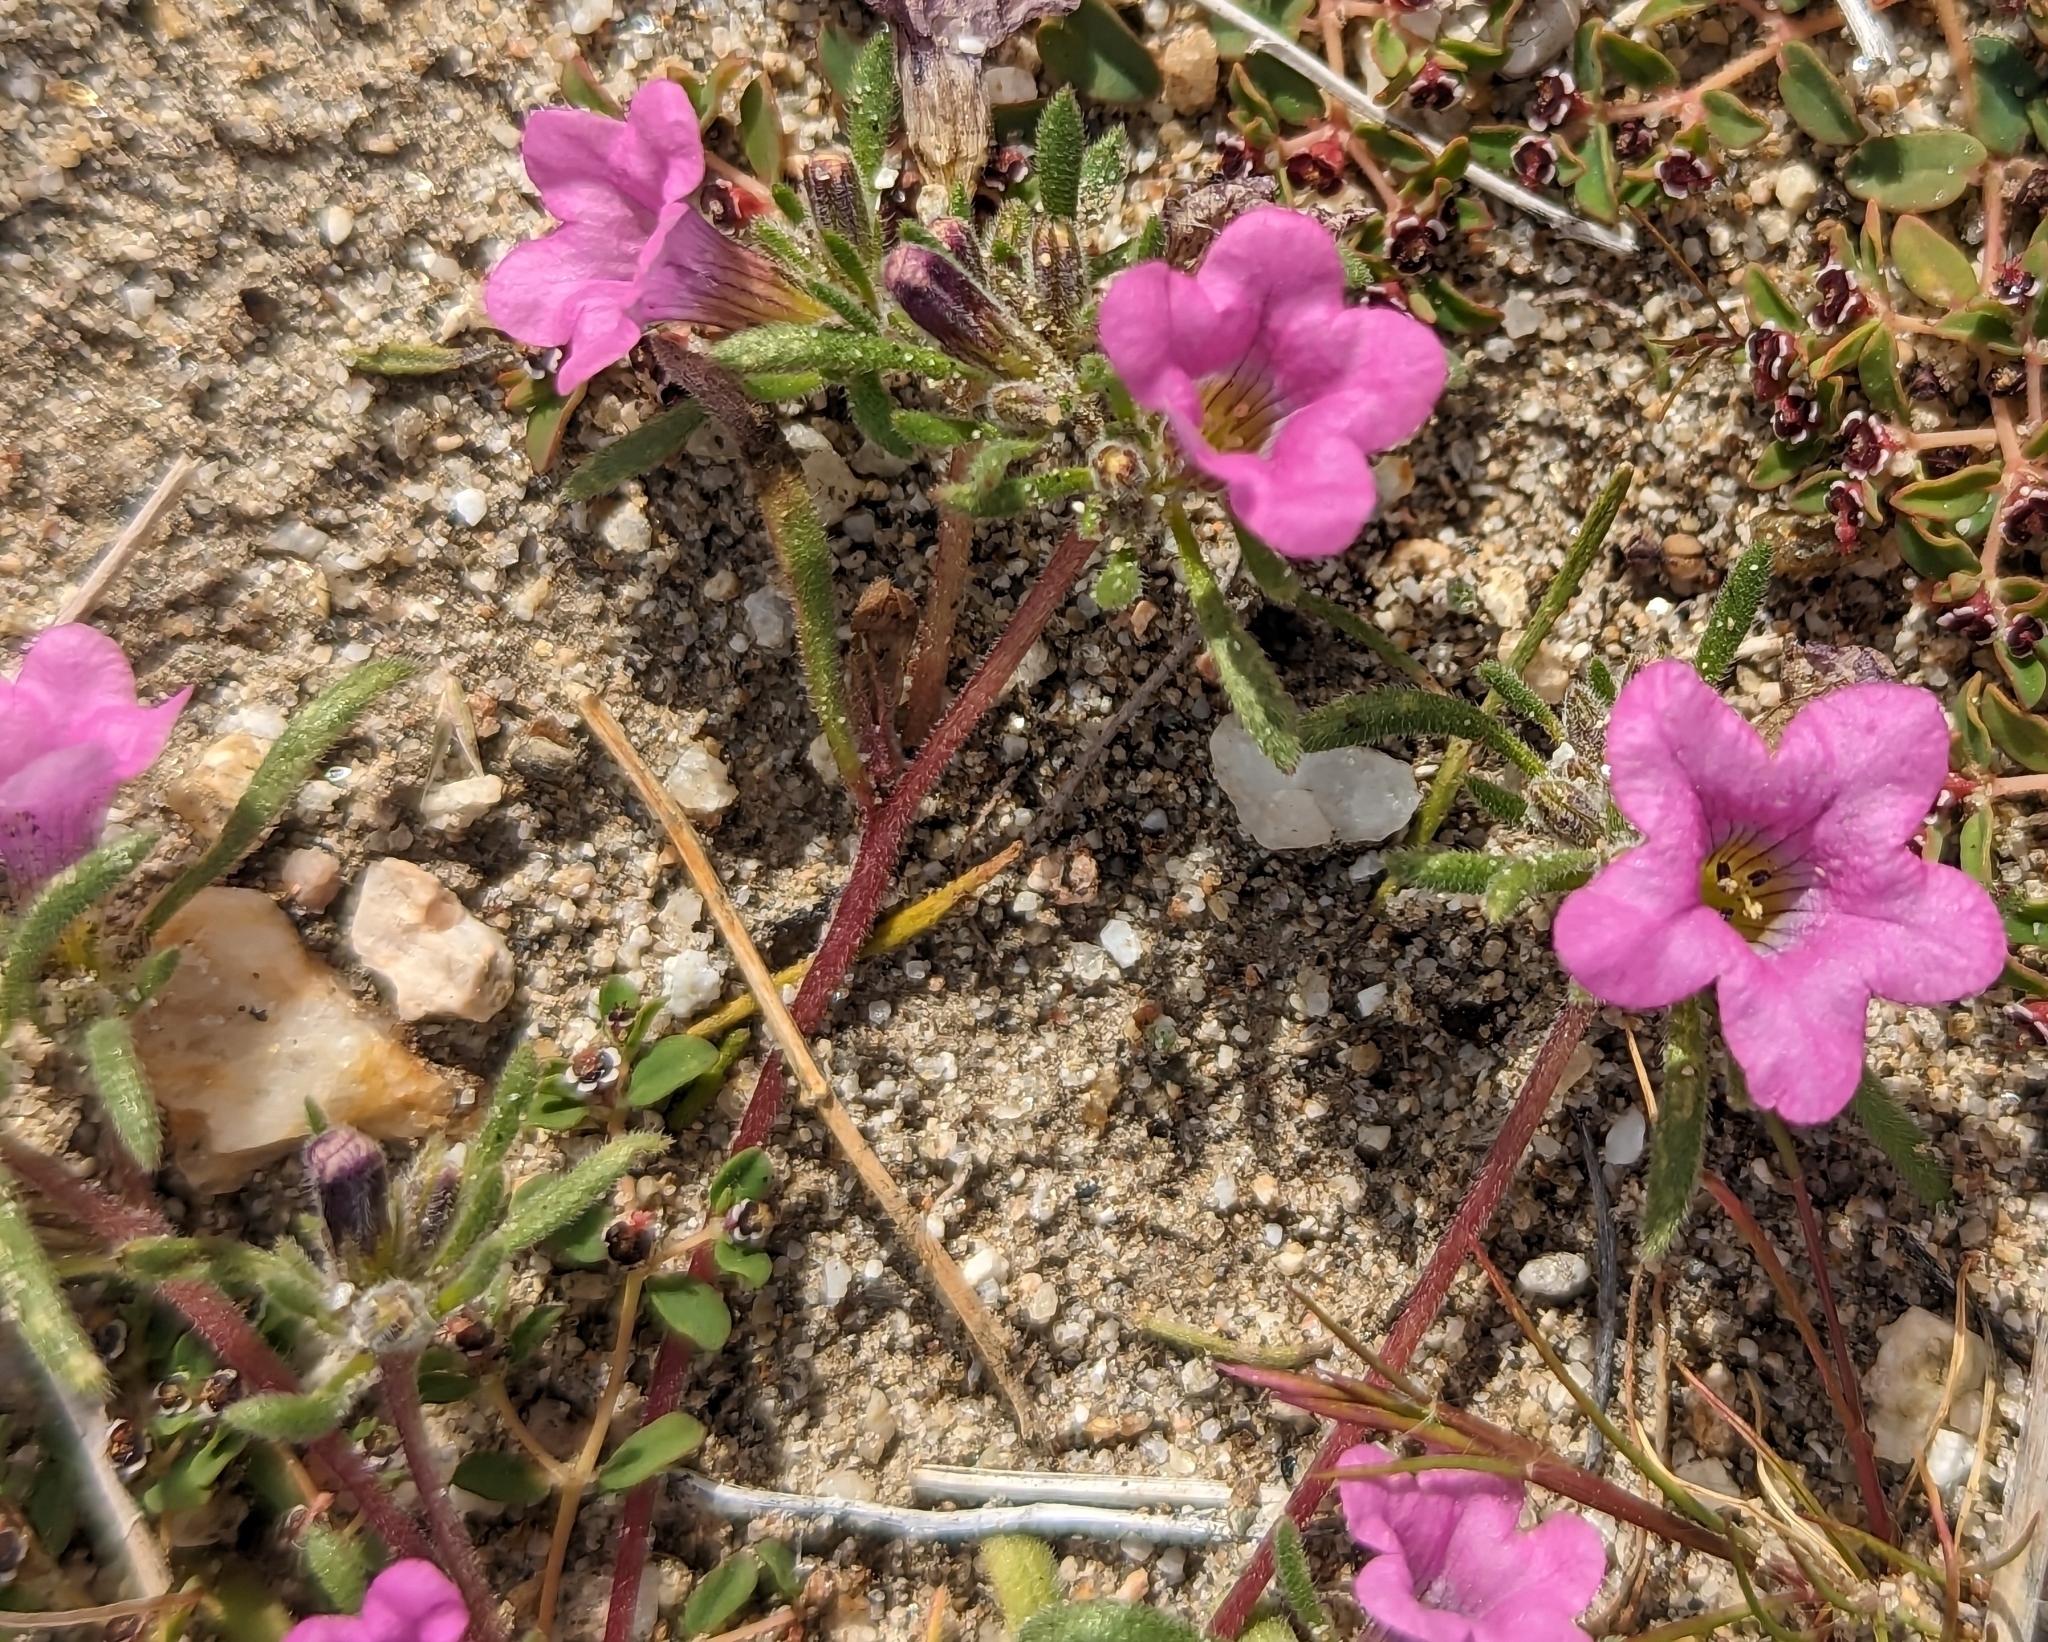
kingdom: Plantae
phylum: Tracheophyta
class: Magnoliopsida
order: Boraginales
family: Namaceae
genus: Nama
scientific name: Nama demissa
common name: Leafy nama
